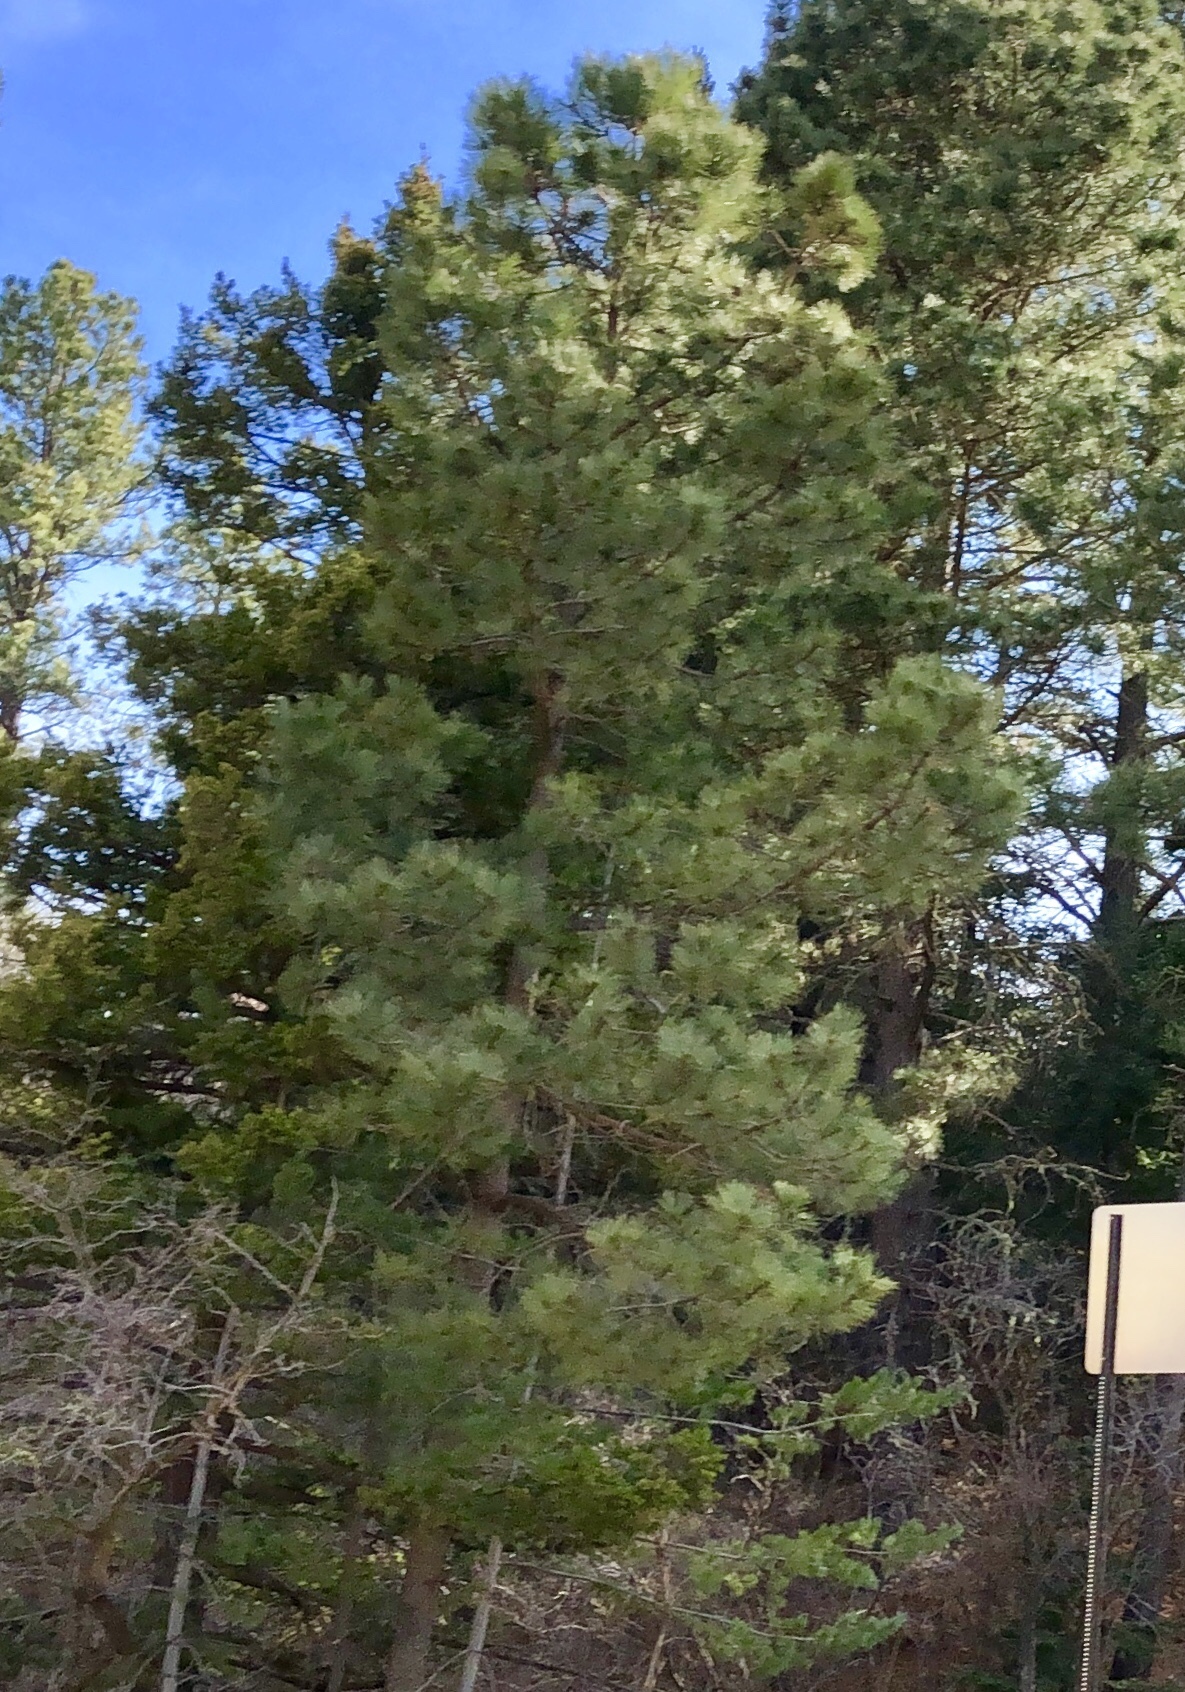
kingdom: Plantae
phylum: Tracheophyta
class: Pinopsida
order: Pinales
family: Pinaceae
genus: Pinus
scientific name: Pinus ponderosa
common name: Western yellow-pine
